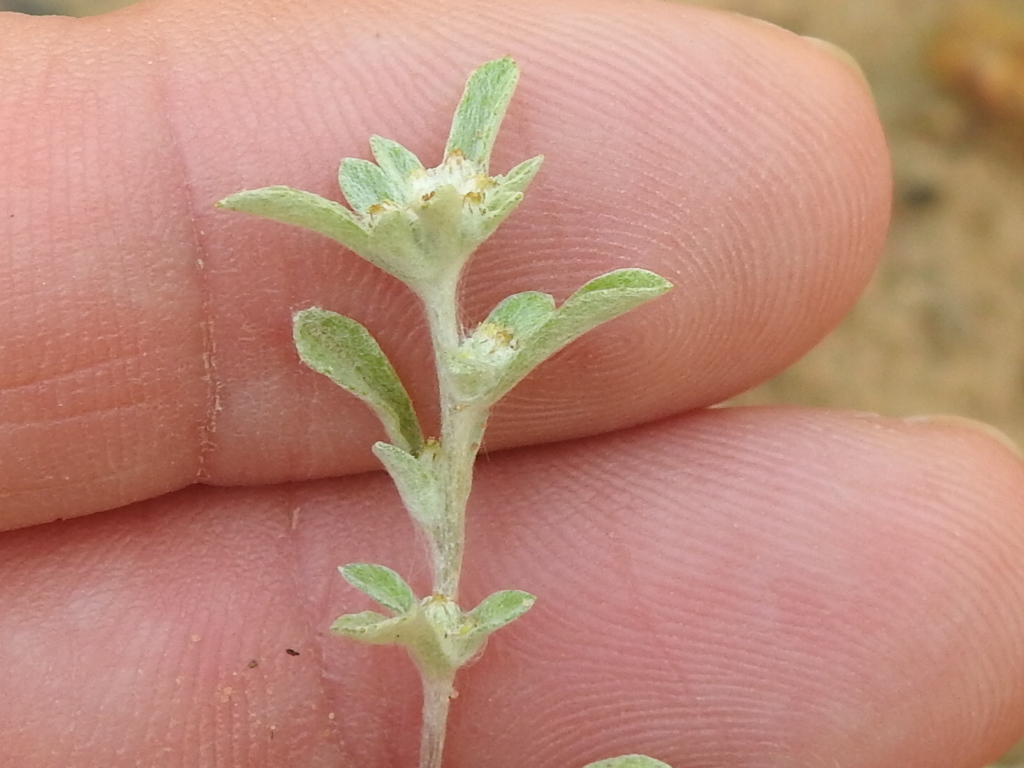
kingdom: Plantae
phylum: Tracheophyta
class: Magnoliopsida
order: Asterales
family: Asteraceae
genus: Diaperia
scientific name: Diaperia candida
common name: Silver rabbit-tobacco
